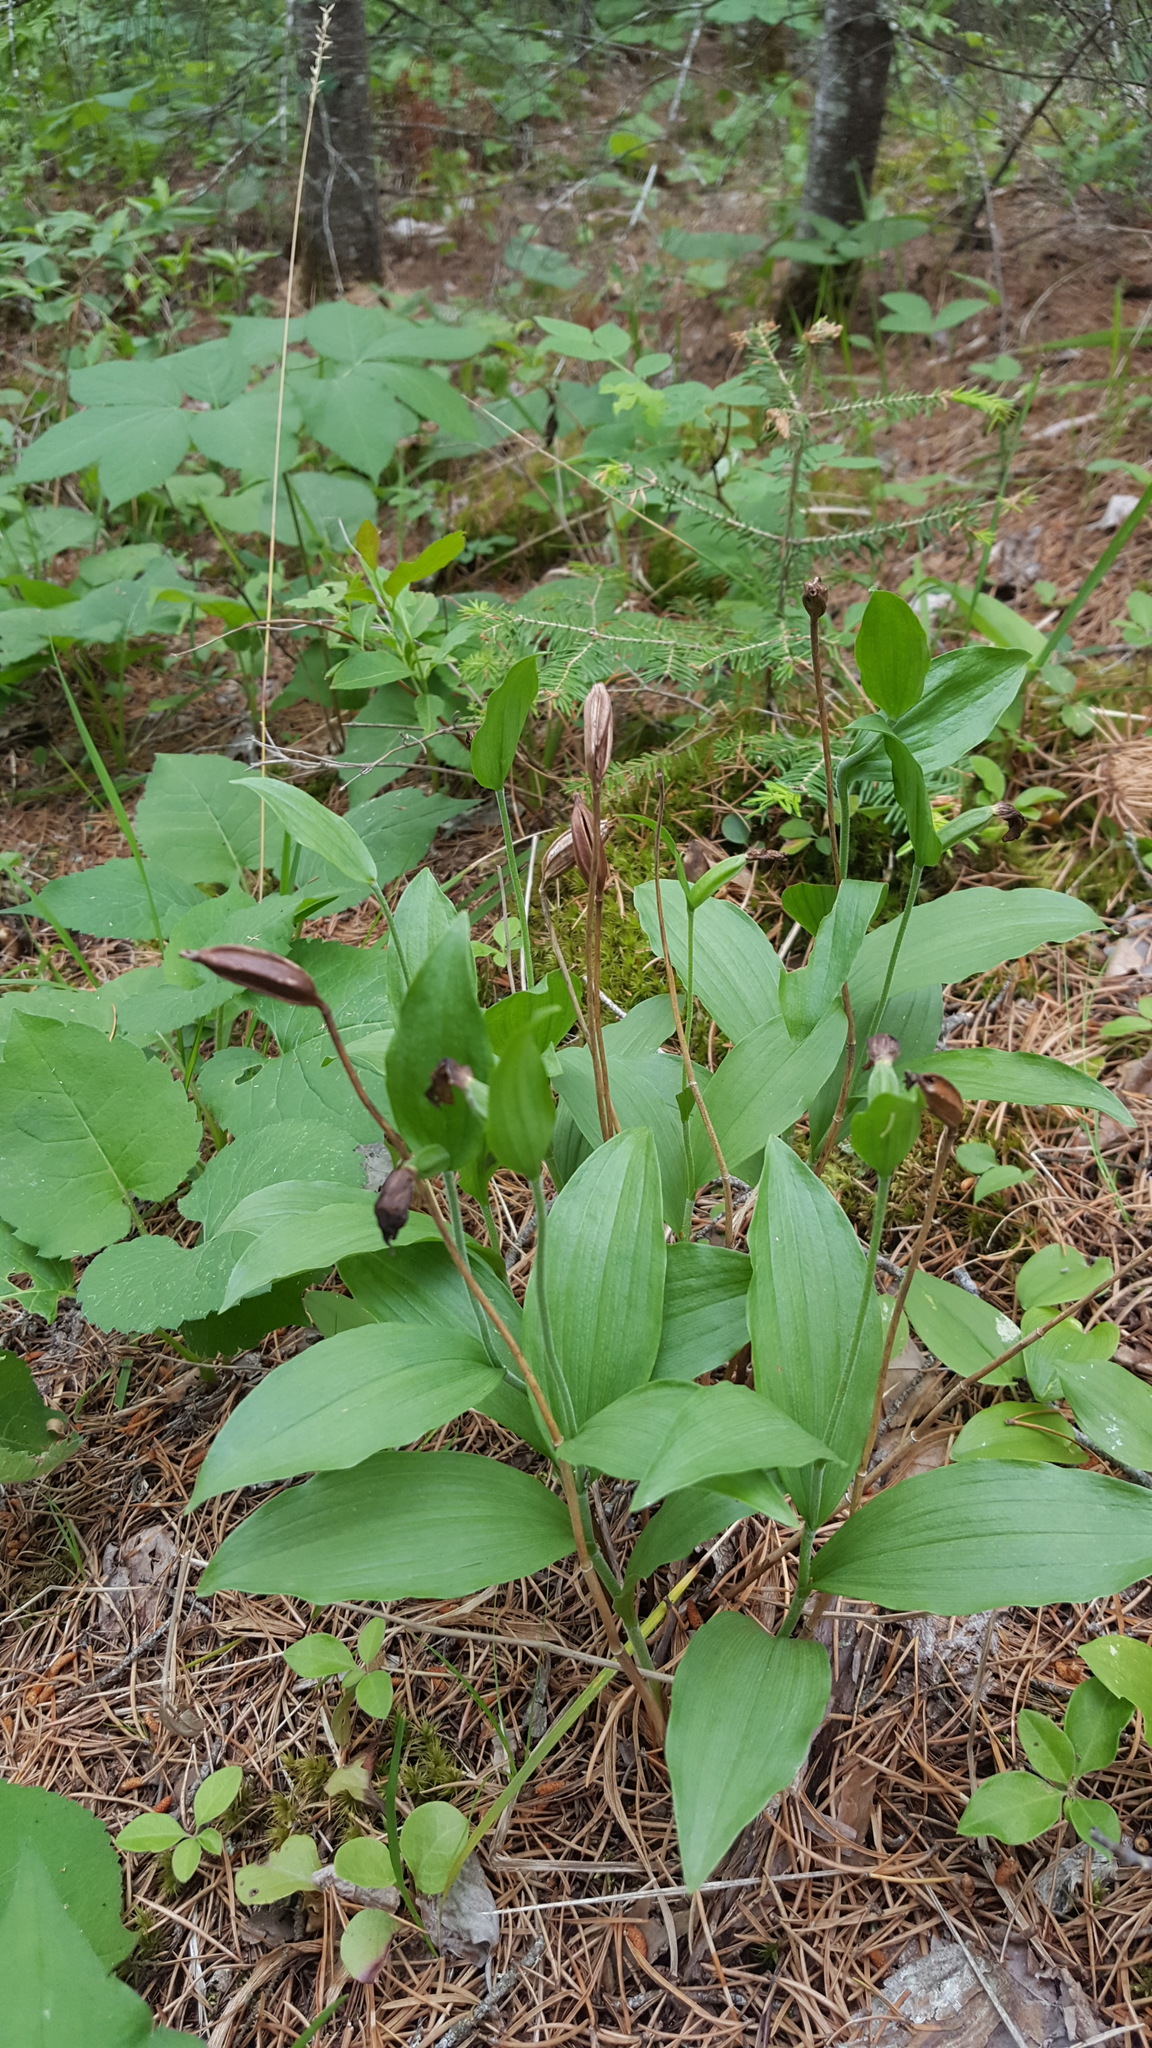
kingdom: Plantae
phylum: Tracheophyta
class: Liliopsida
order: Asparagales
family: Orchidaceae
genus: Cypripedium
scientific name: Cypripedium arietinum
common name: Ram's-head
